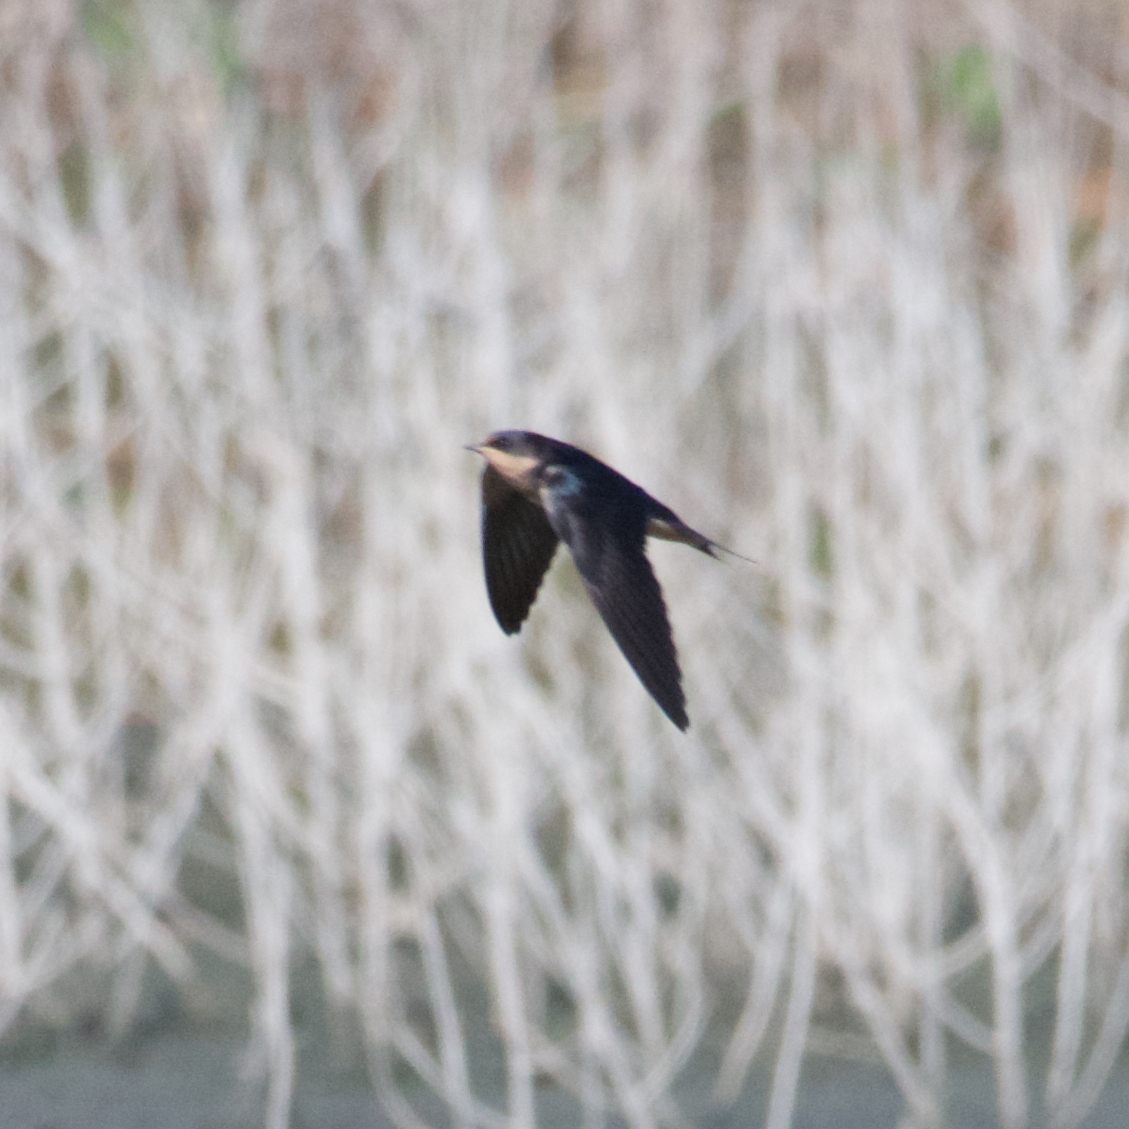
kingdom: Animalia
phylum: Chordata
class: Aves
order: Passeriformes
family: Hirundinidae
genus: Hirundo
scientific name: Hirundo rustica
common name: Barn swallow
